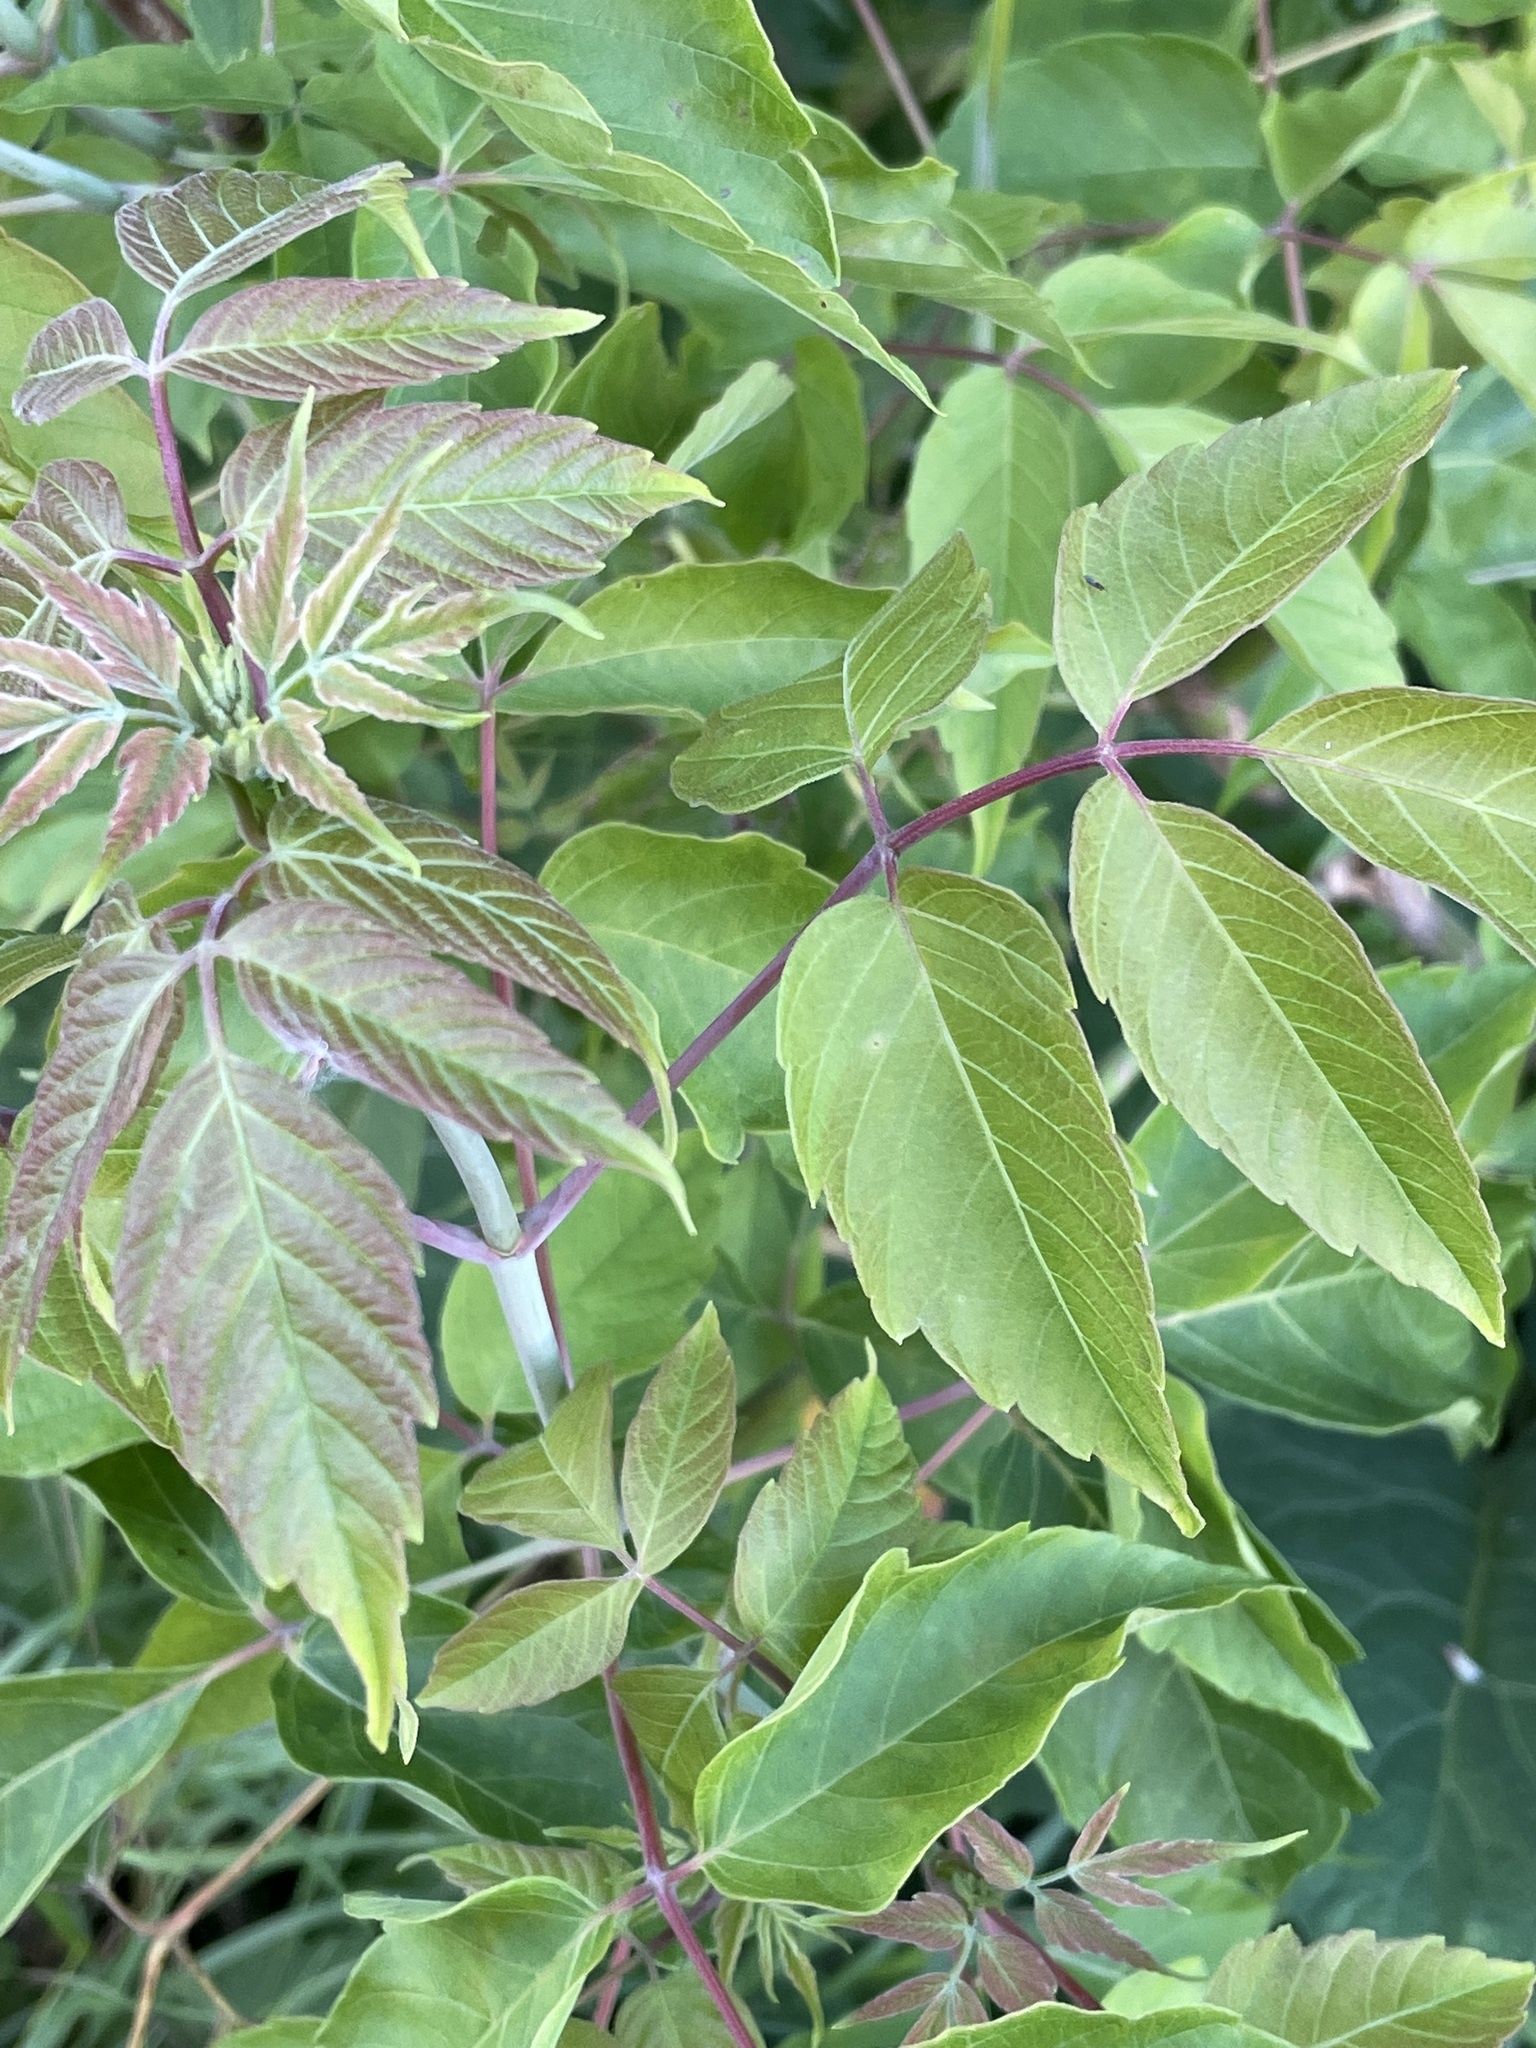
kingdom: Plantae
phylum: Tracheophyta
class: Magnoliopsida
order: Sapindales
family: Sapindaceae
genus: Acer
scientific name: Acer negundo
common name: Ashleaf maple
